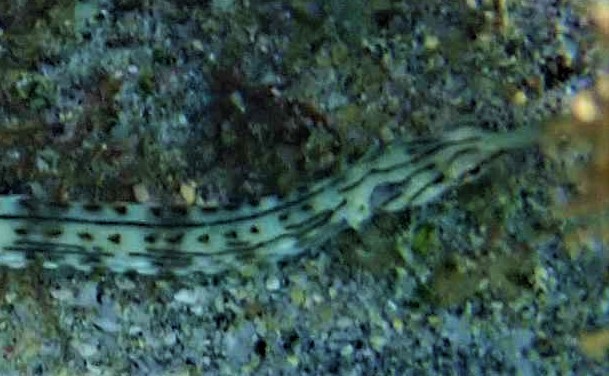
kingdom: Animalia
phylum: Chordata
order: Syngnathiformes
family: Syngnathidae
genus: Corythoichthys
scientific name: Corythoichthys schultzi
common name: Guilded pipefish
